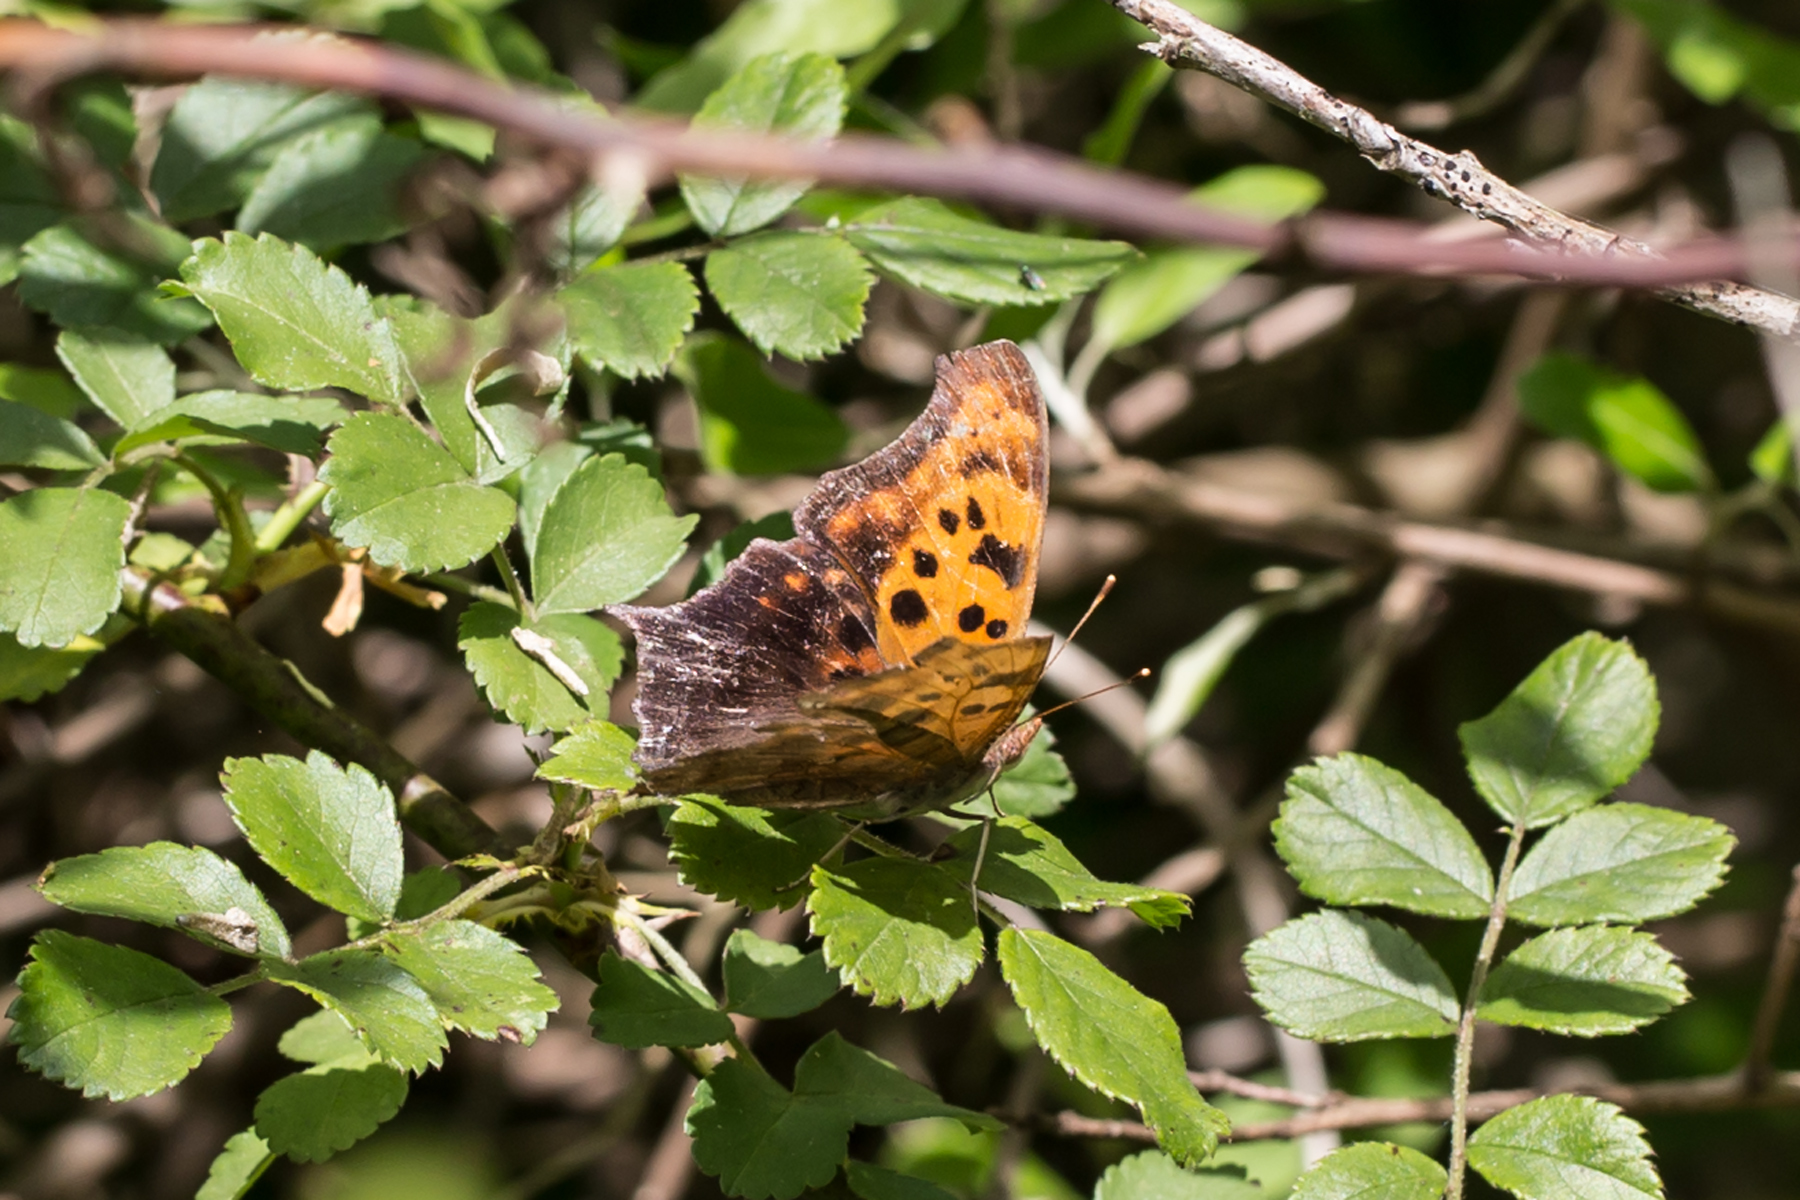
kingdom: Animalia
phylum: Arthropoda
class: Insecta
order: Lepidoptera
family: Nymphalidae
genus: Polygonia
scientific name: Polygonia interrogationis
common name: Question mark
